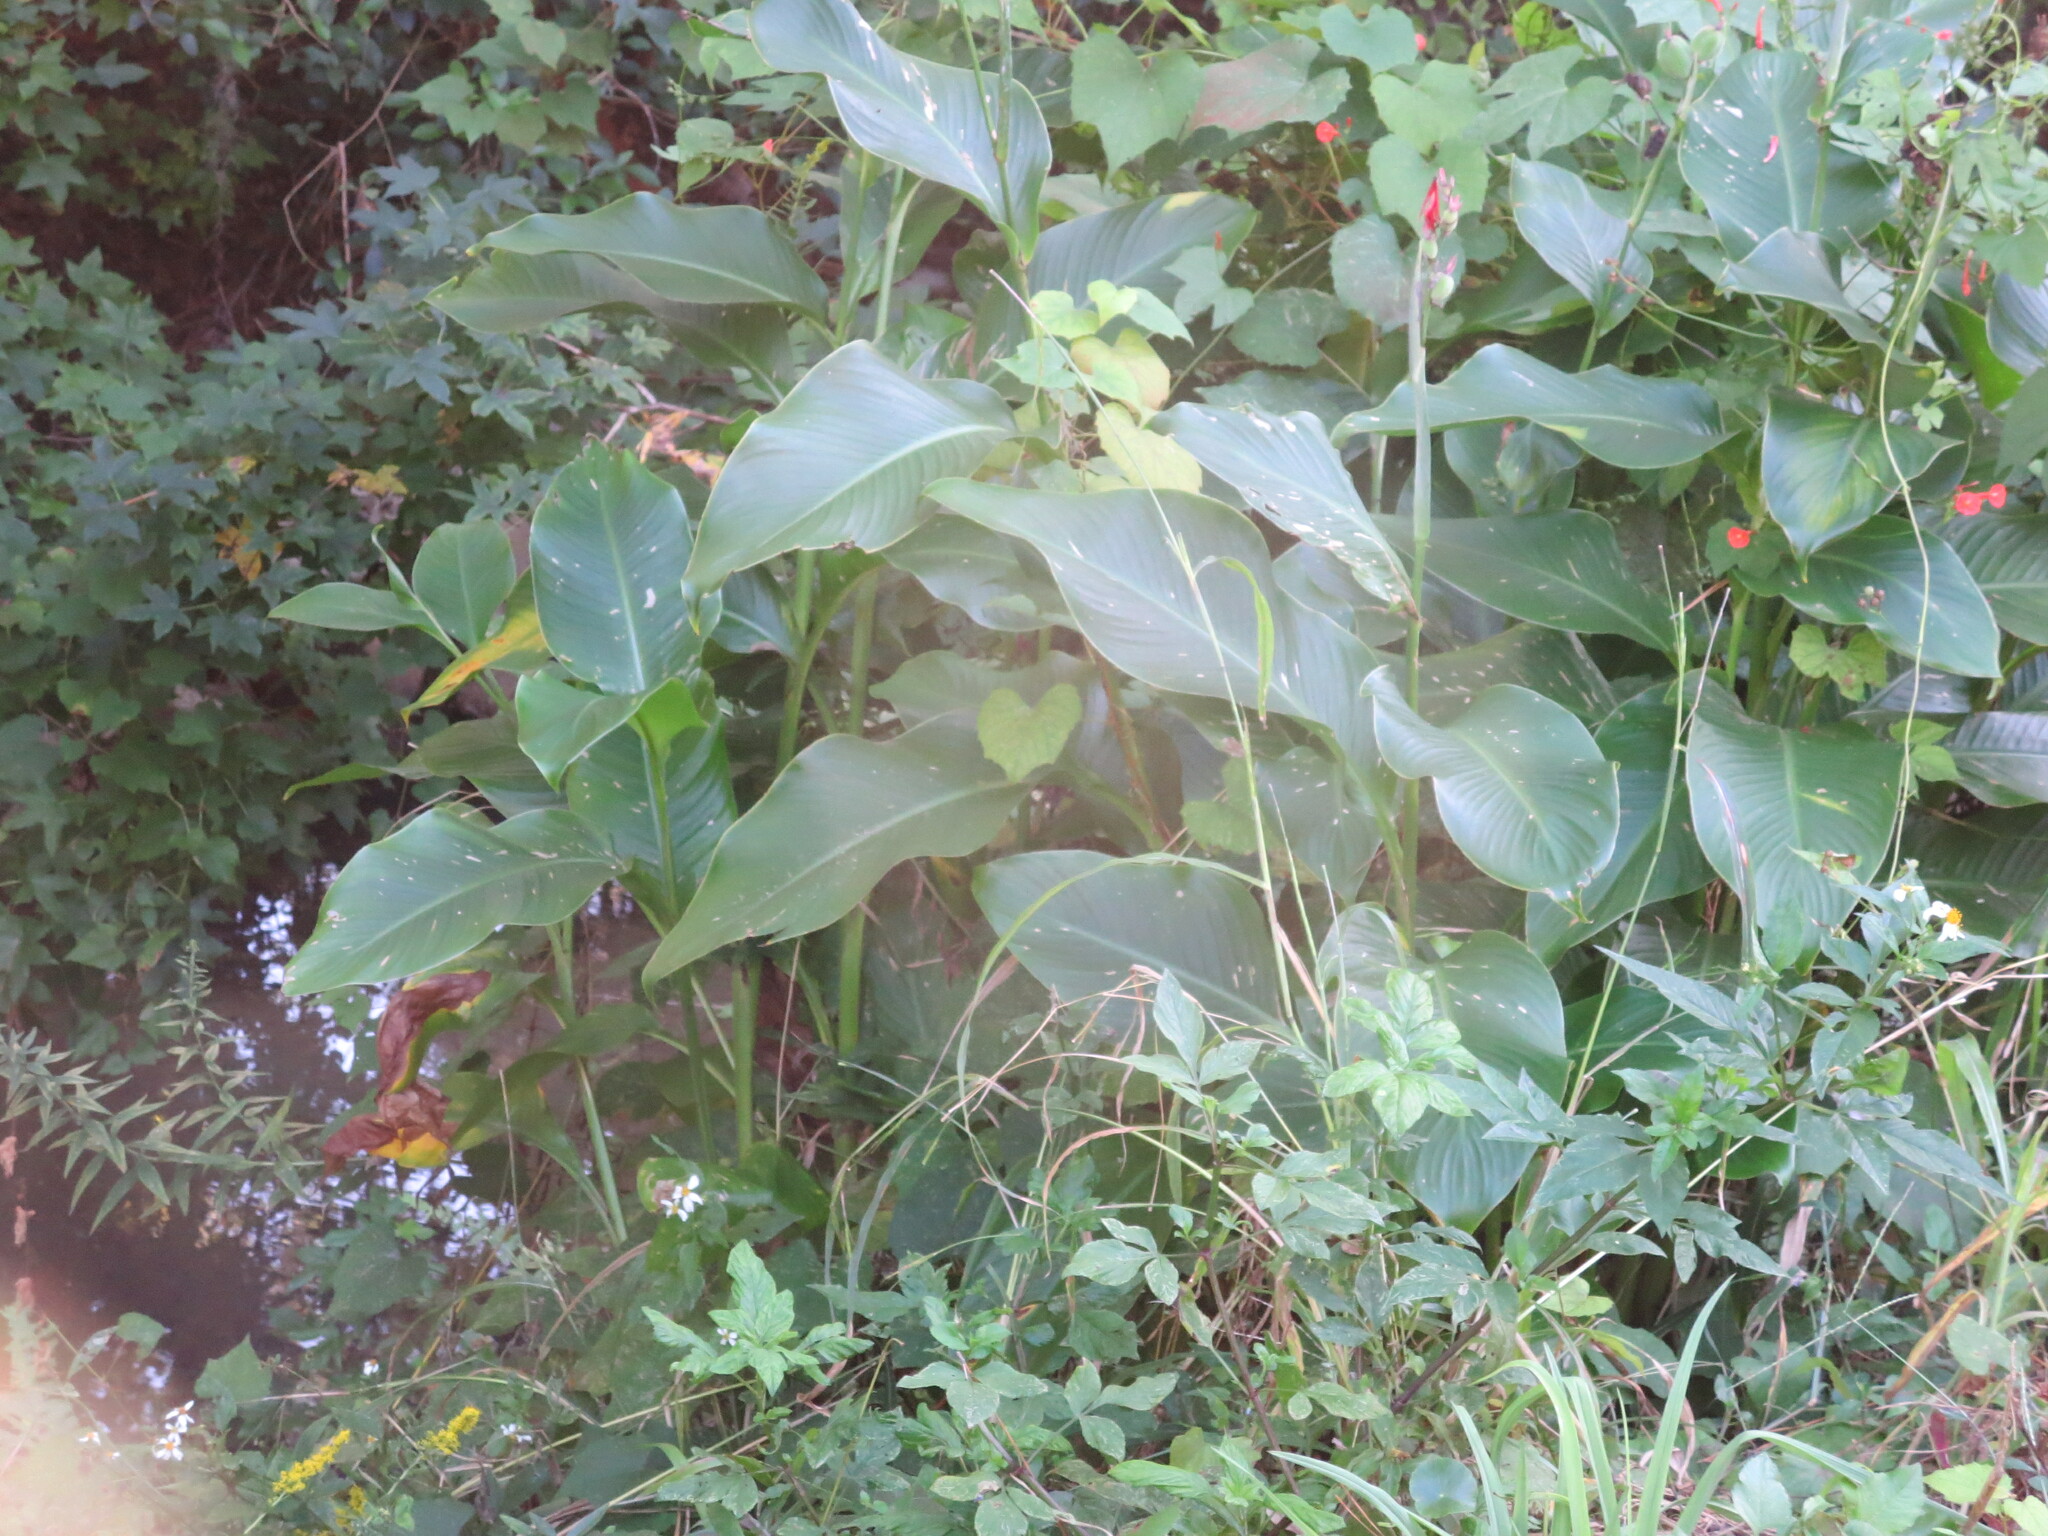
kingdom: Plantae
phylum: Tracheophyta
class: Liliopsida
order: Zingiberales
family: Cannaceae
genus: Canna
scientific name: Canna indica
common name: Indian shot
